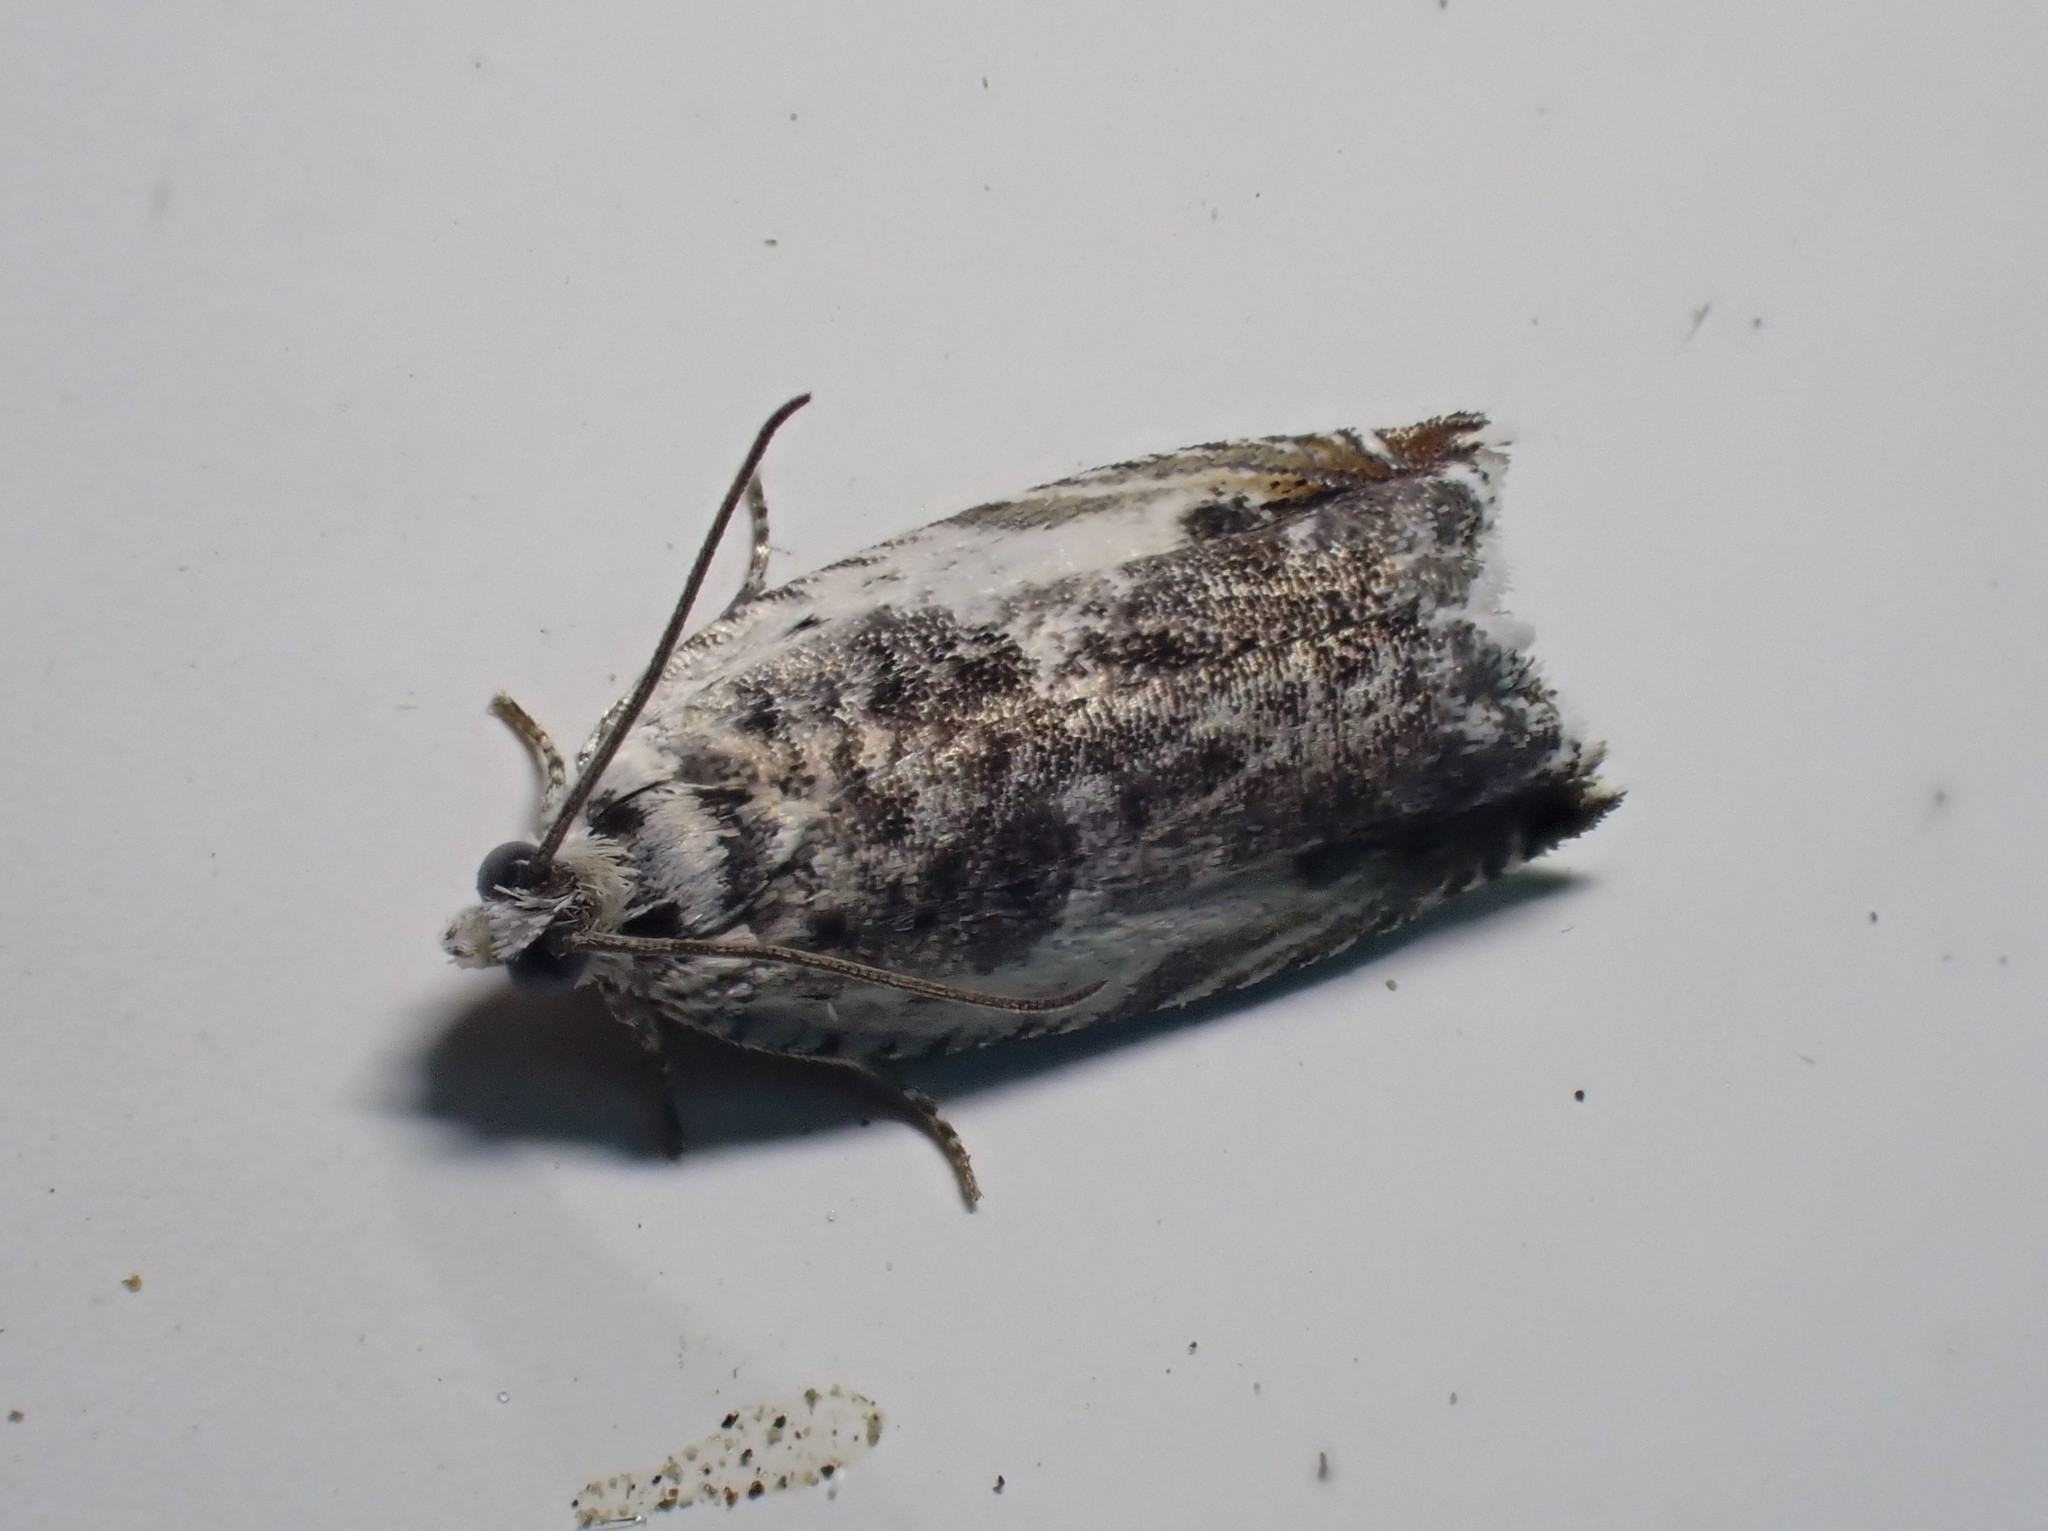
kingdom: Animalia
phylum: Arthropoda
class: Insecta
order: Lepidoptera
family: Tortricidae
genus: Ancylis
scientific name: Ancylis laetana
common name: Aspen roller
